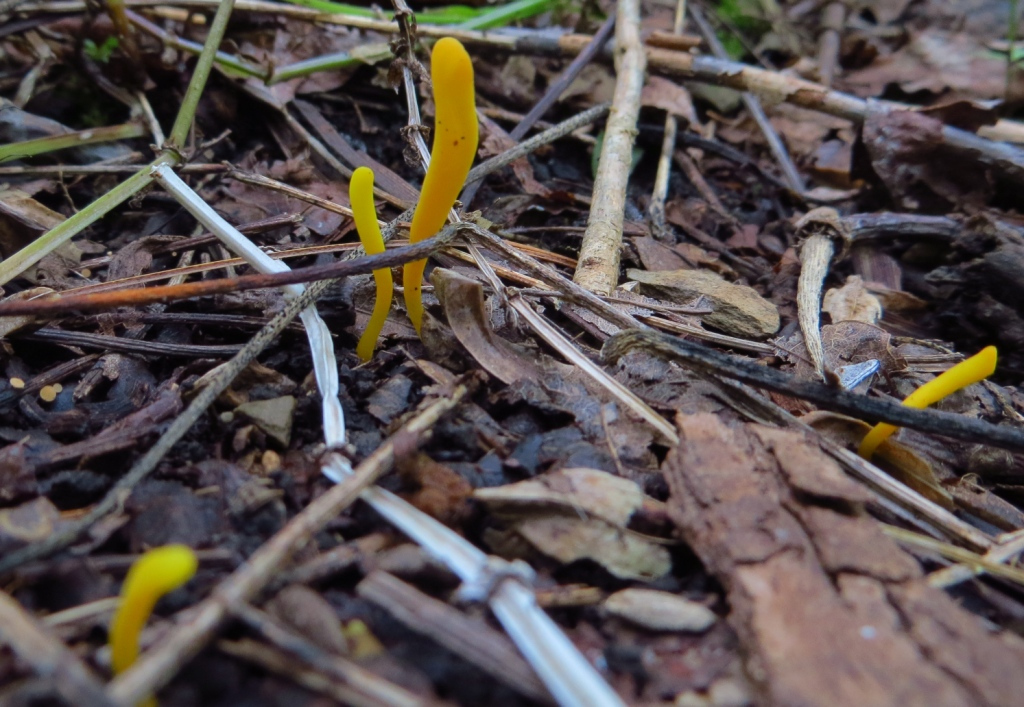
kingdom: Fungi
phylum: Basidiomycota
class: Agaricomycetes
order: Agaricales
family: Clavariaceae
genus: Clavulinopsis
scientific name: Clavulinopsis helvola
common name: Yellow club
